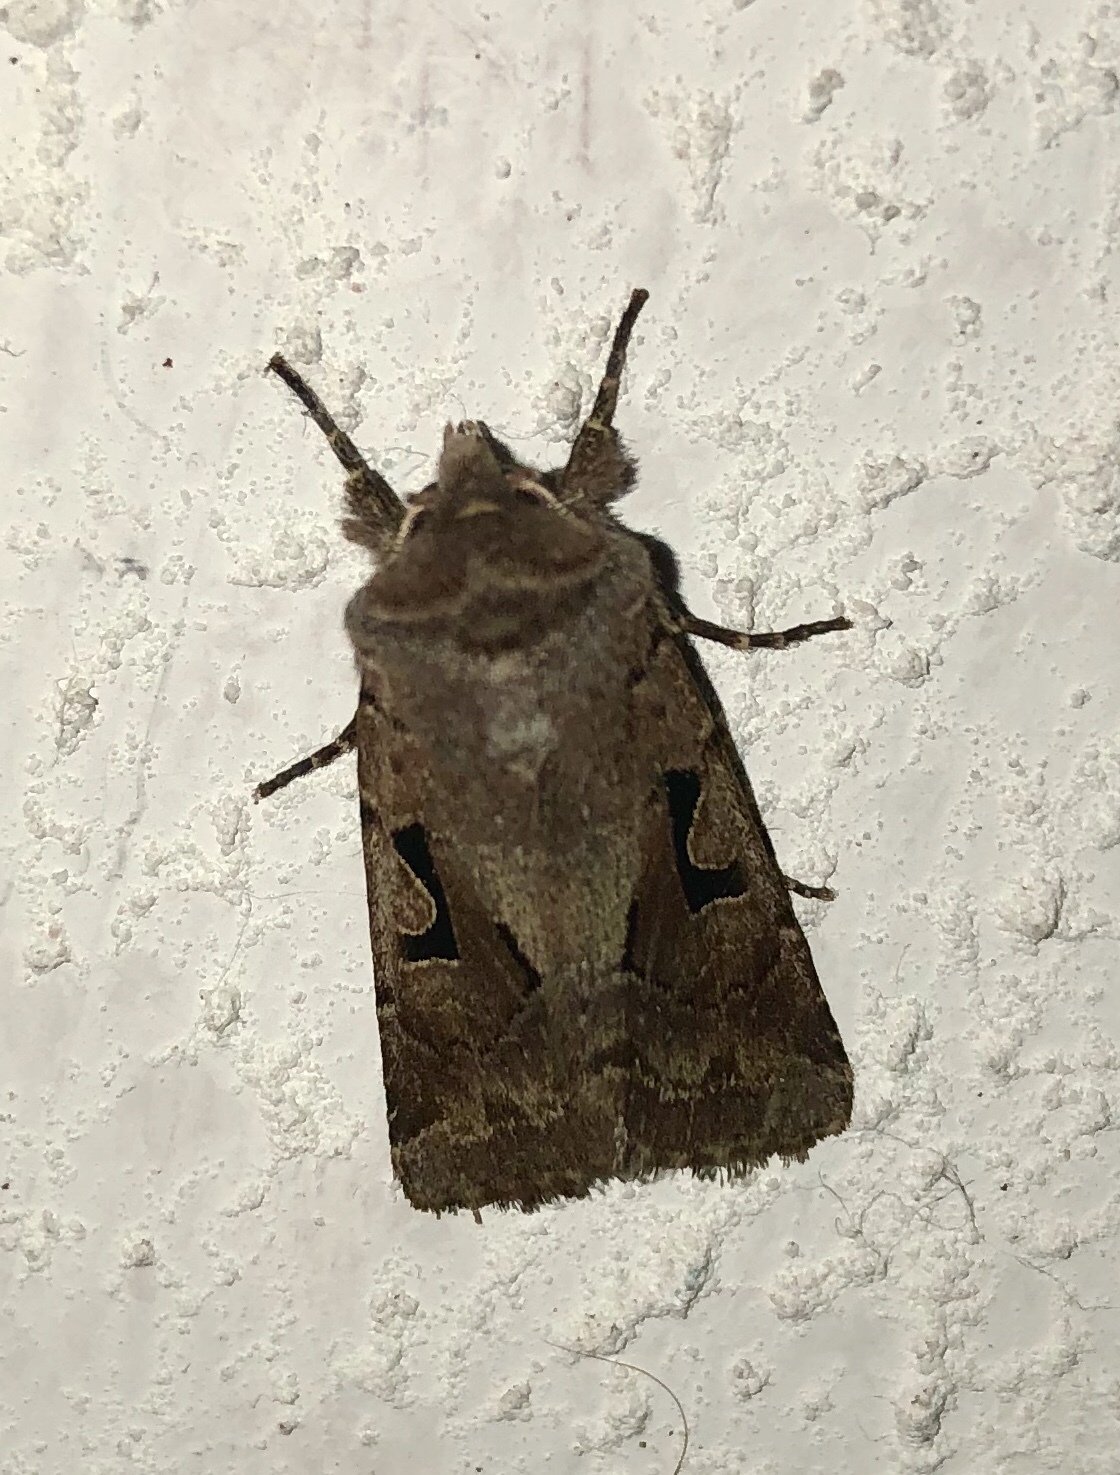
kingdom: Animalia
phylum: Arthropoda
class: Insecta
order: Lepidoptera
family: Noctuidae
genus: Orthosia
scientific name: Orthosia gothica
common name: Hebrew character
